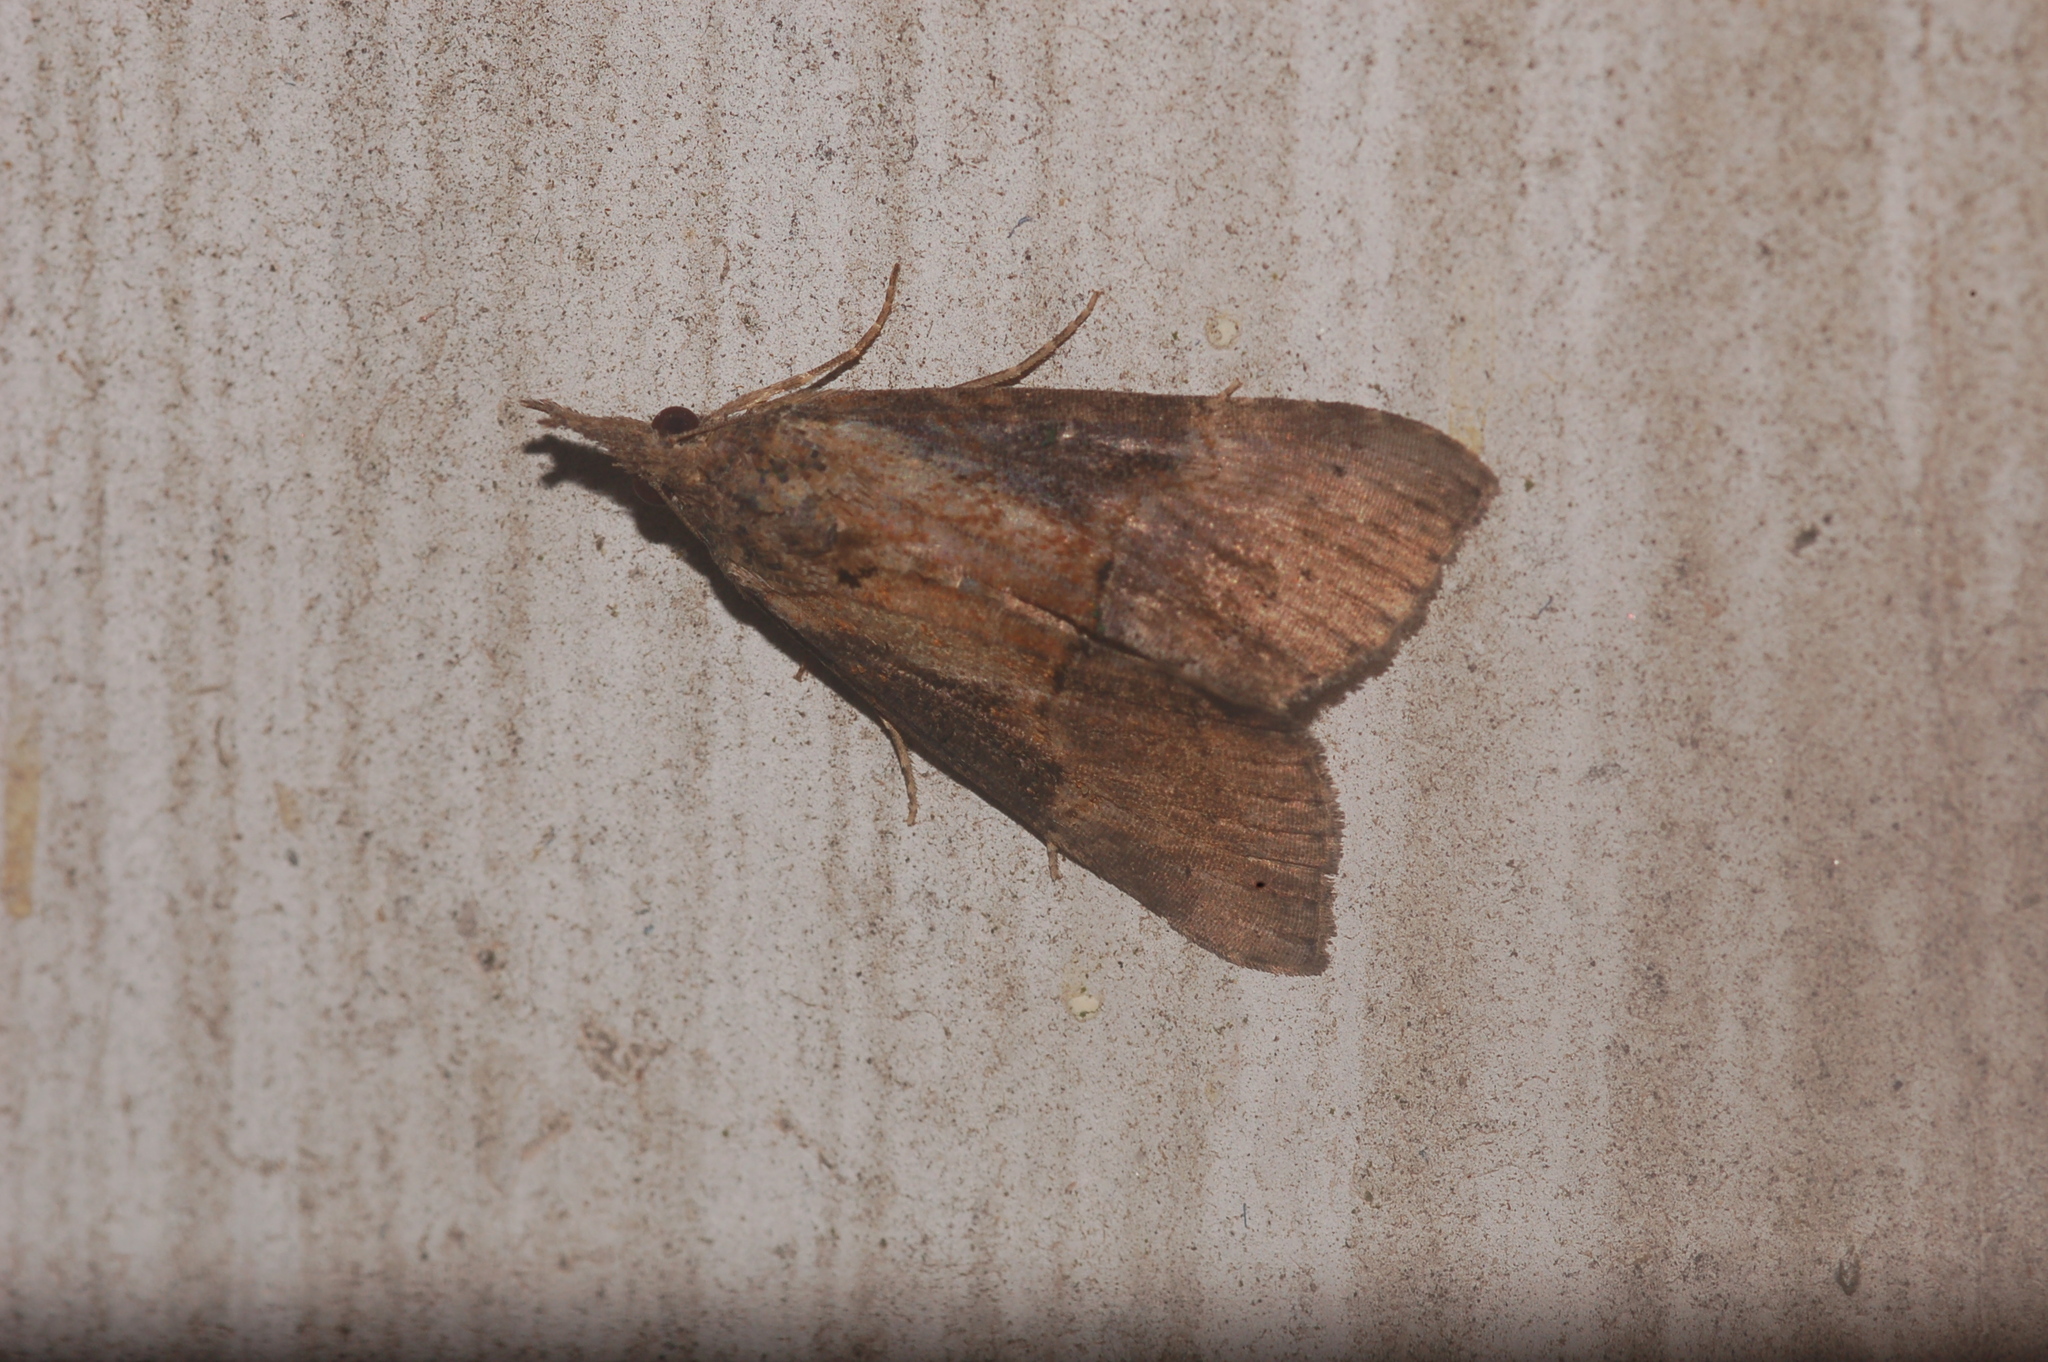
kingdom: Animalia
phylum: Arthropoda
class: Insecta
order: Lepidoptera
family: Erebidae
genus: Hypena
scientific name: Hypena scabra
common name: Green cloverworm
